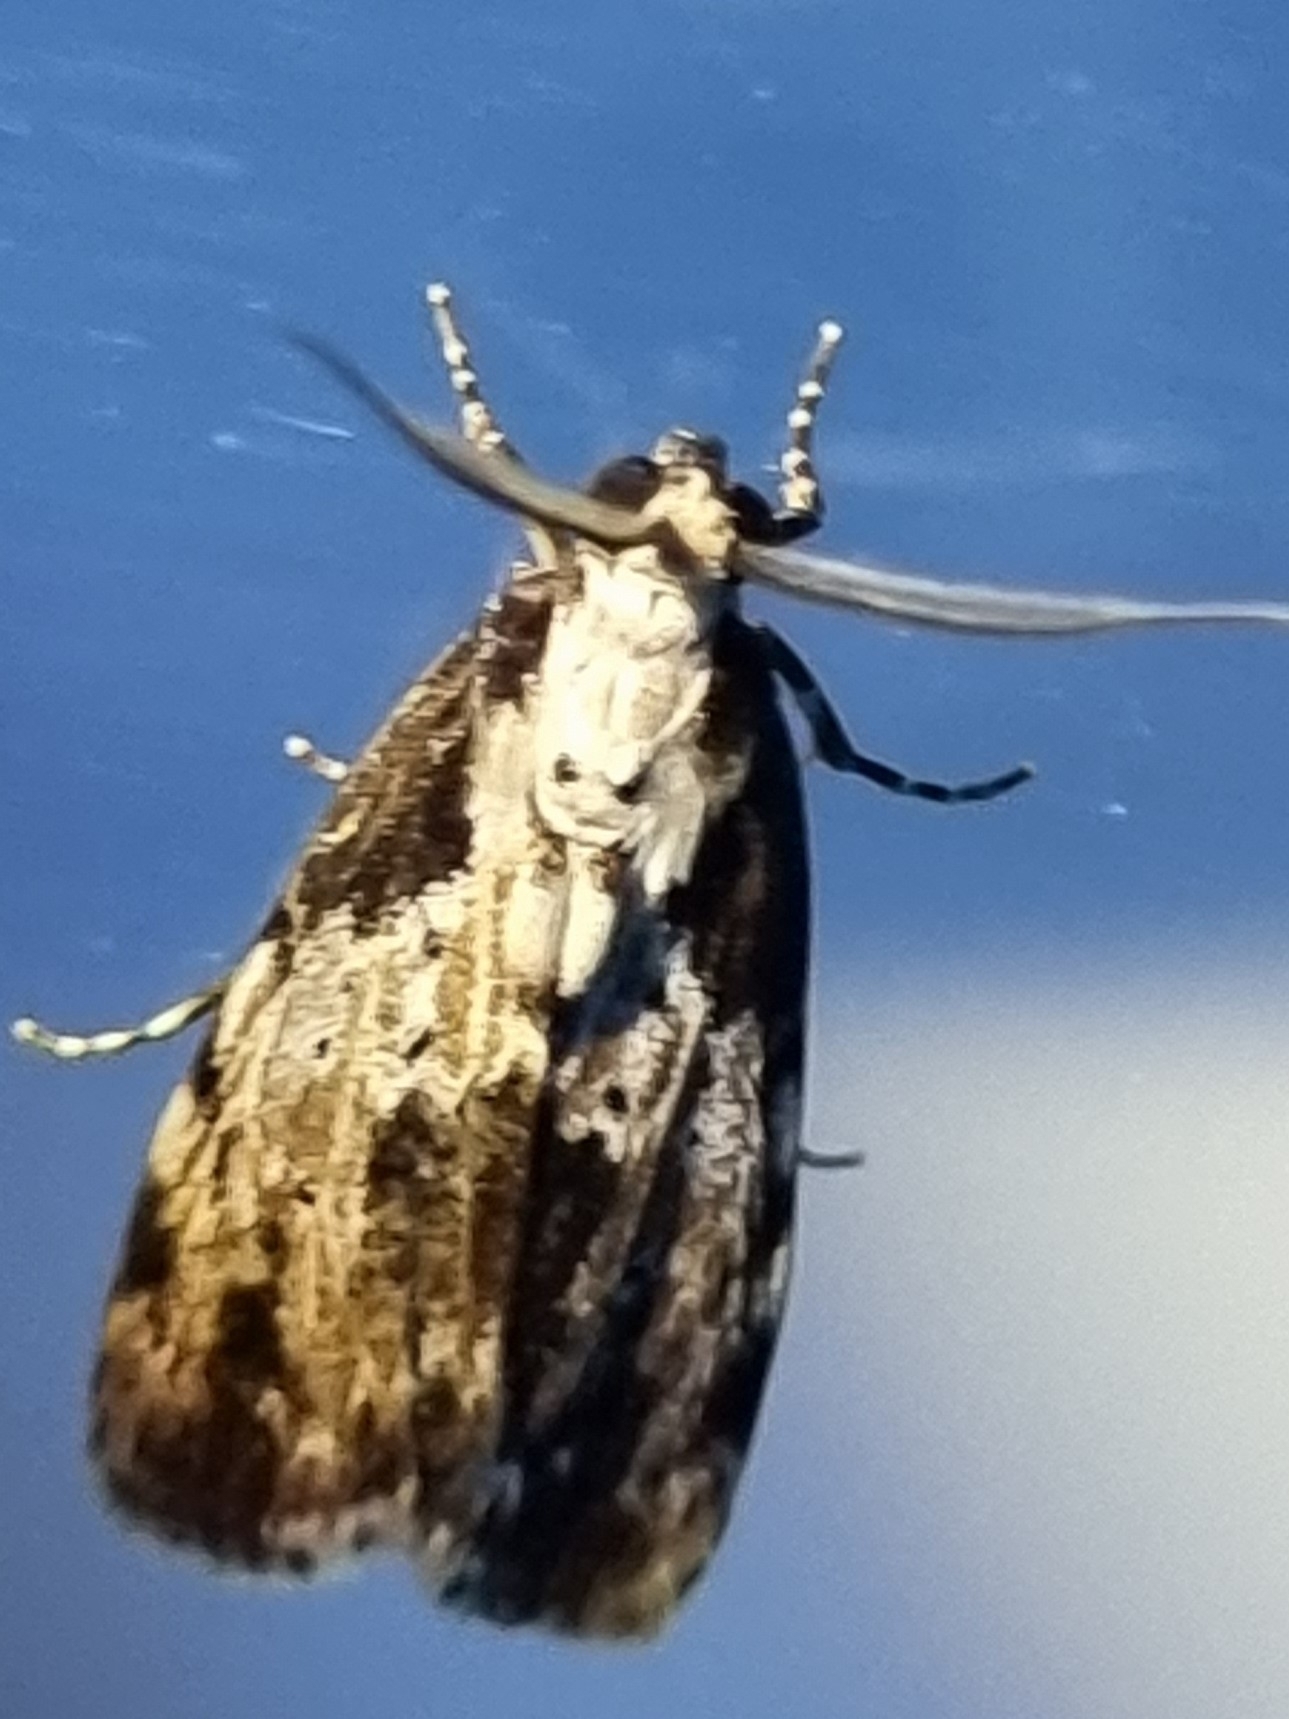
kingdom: Animalia
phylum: Arthropoda
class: Insecta
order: Lepidoptera
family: Erebidae
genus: Digama
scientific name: Digama Sommeria marmorea
